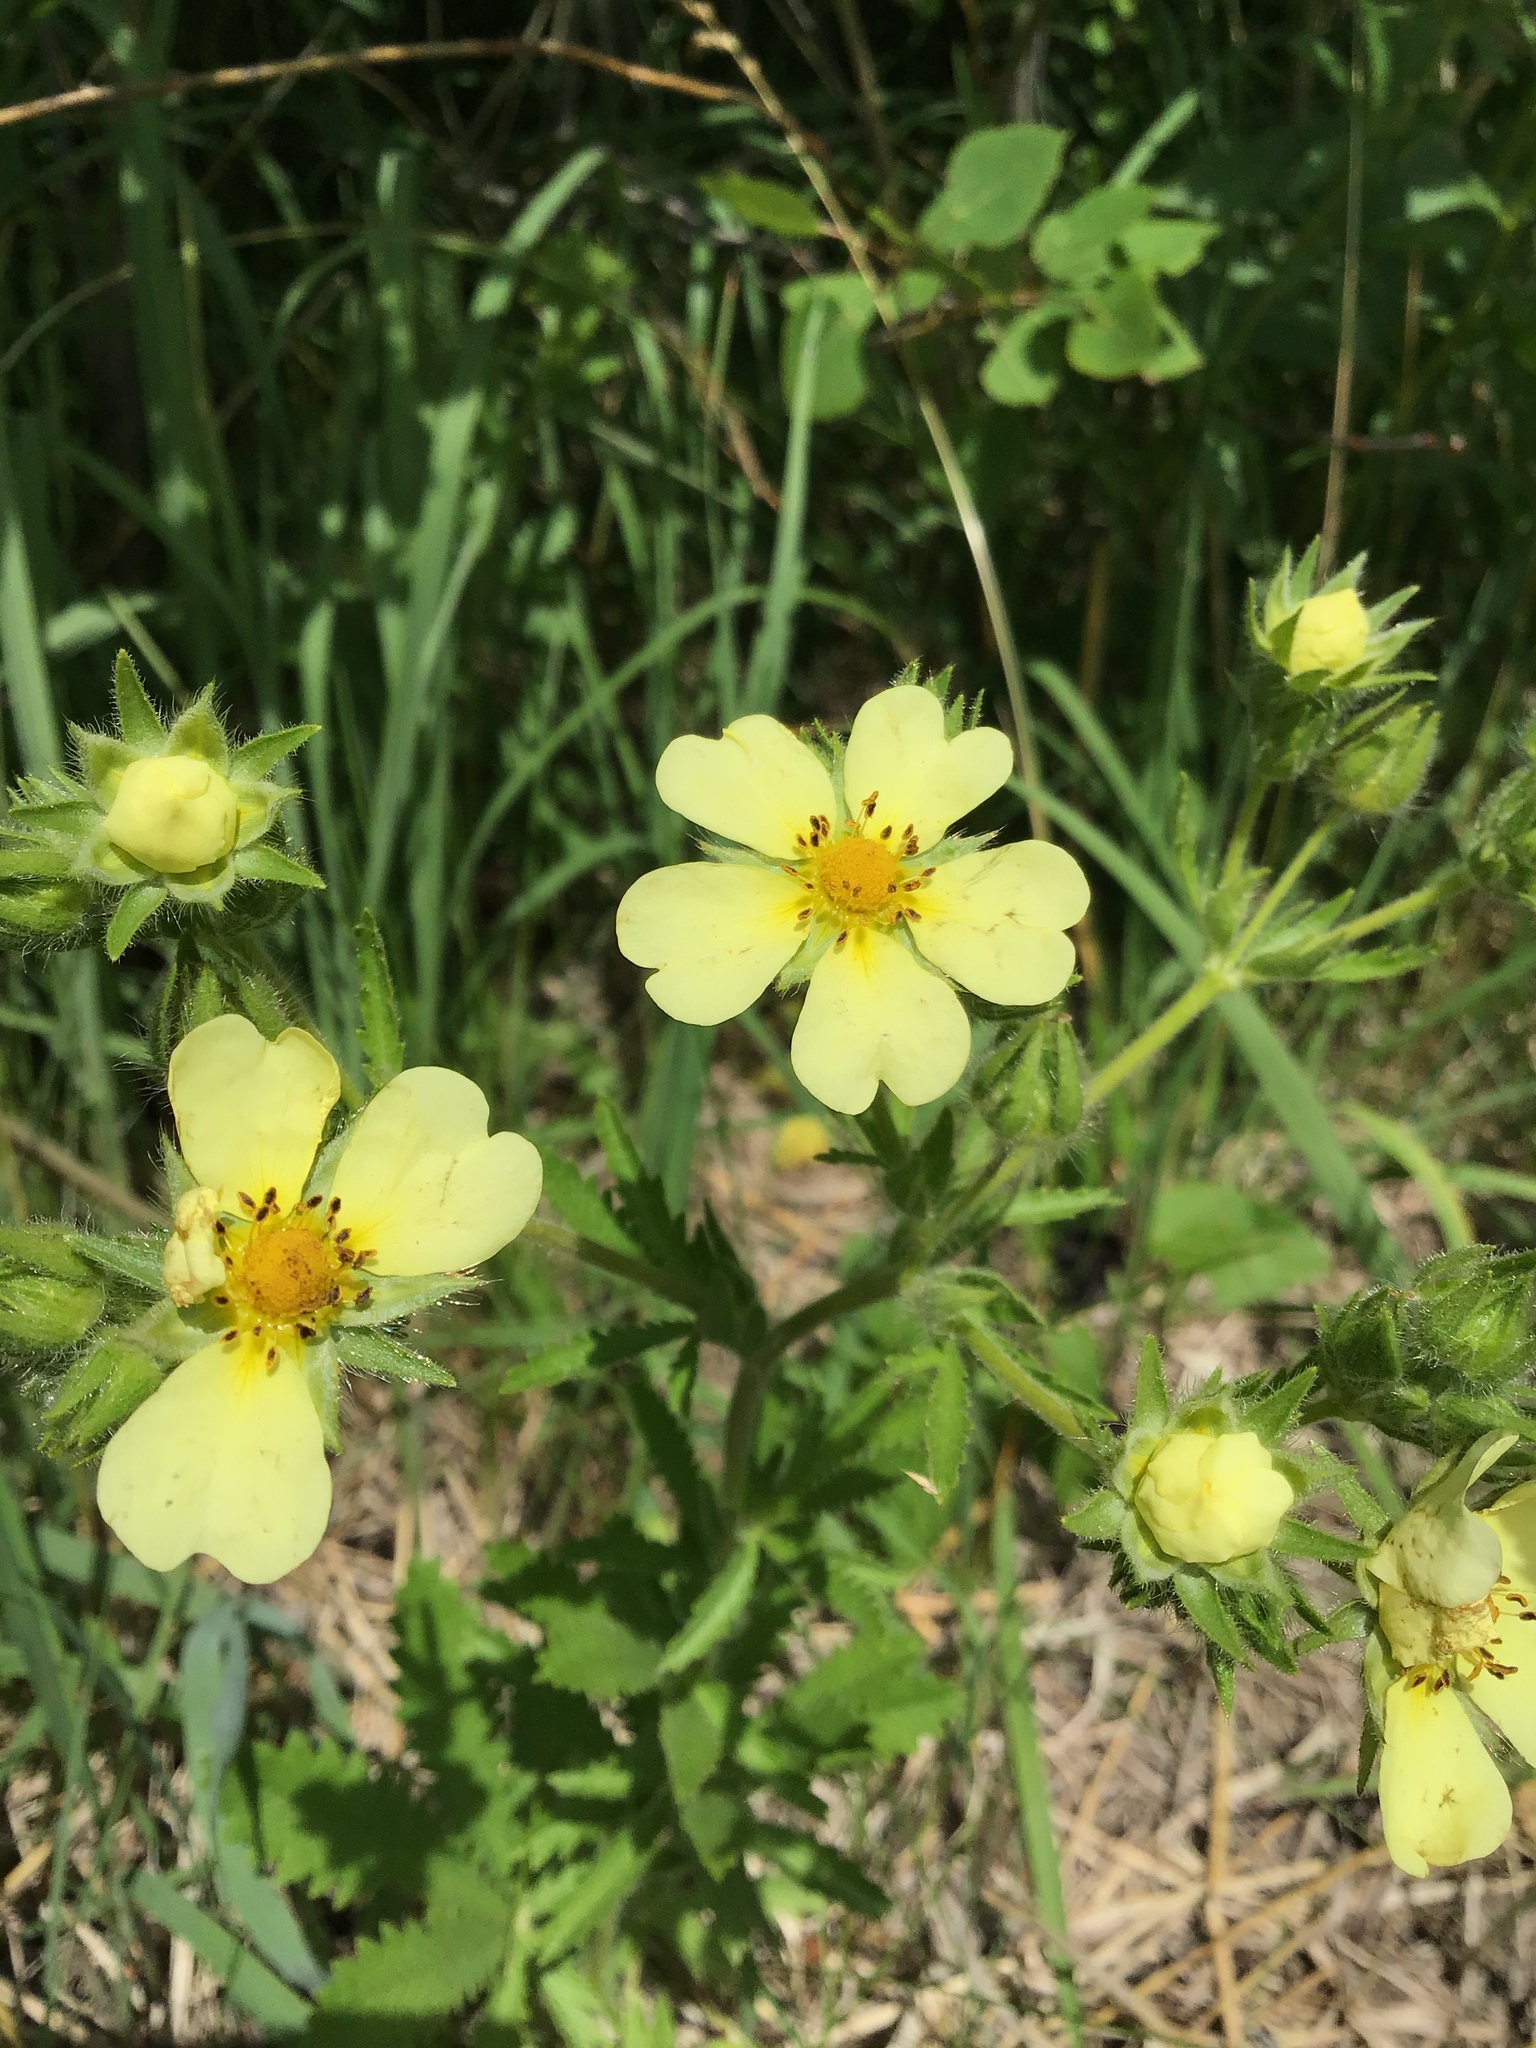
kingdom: Plantae
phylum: Tracheophyta
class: Magnoliopsida
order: Rosales
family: Rosaceae
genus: Potentilla
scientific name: Potentilla recta
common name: Sulphur cinquefoil
